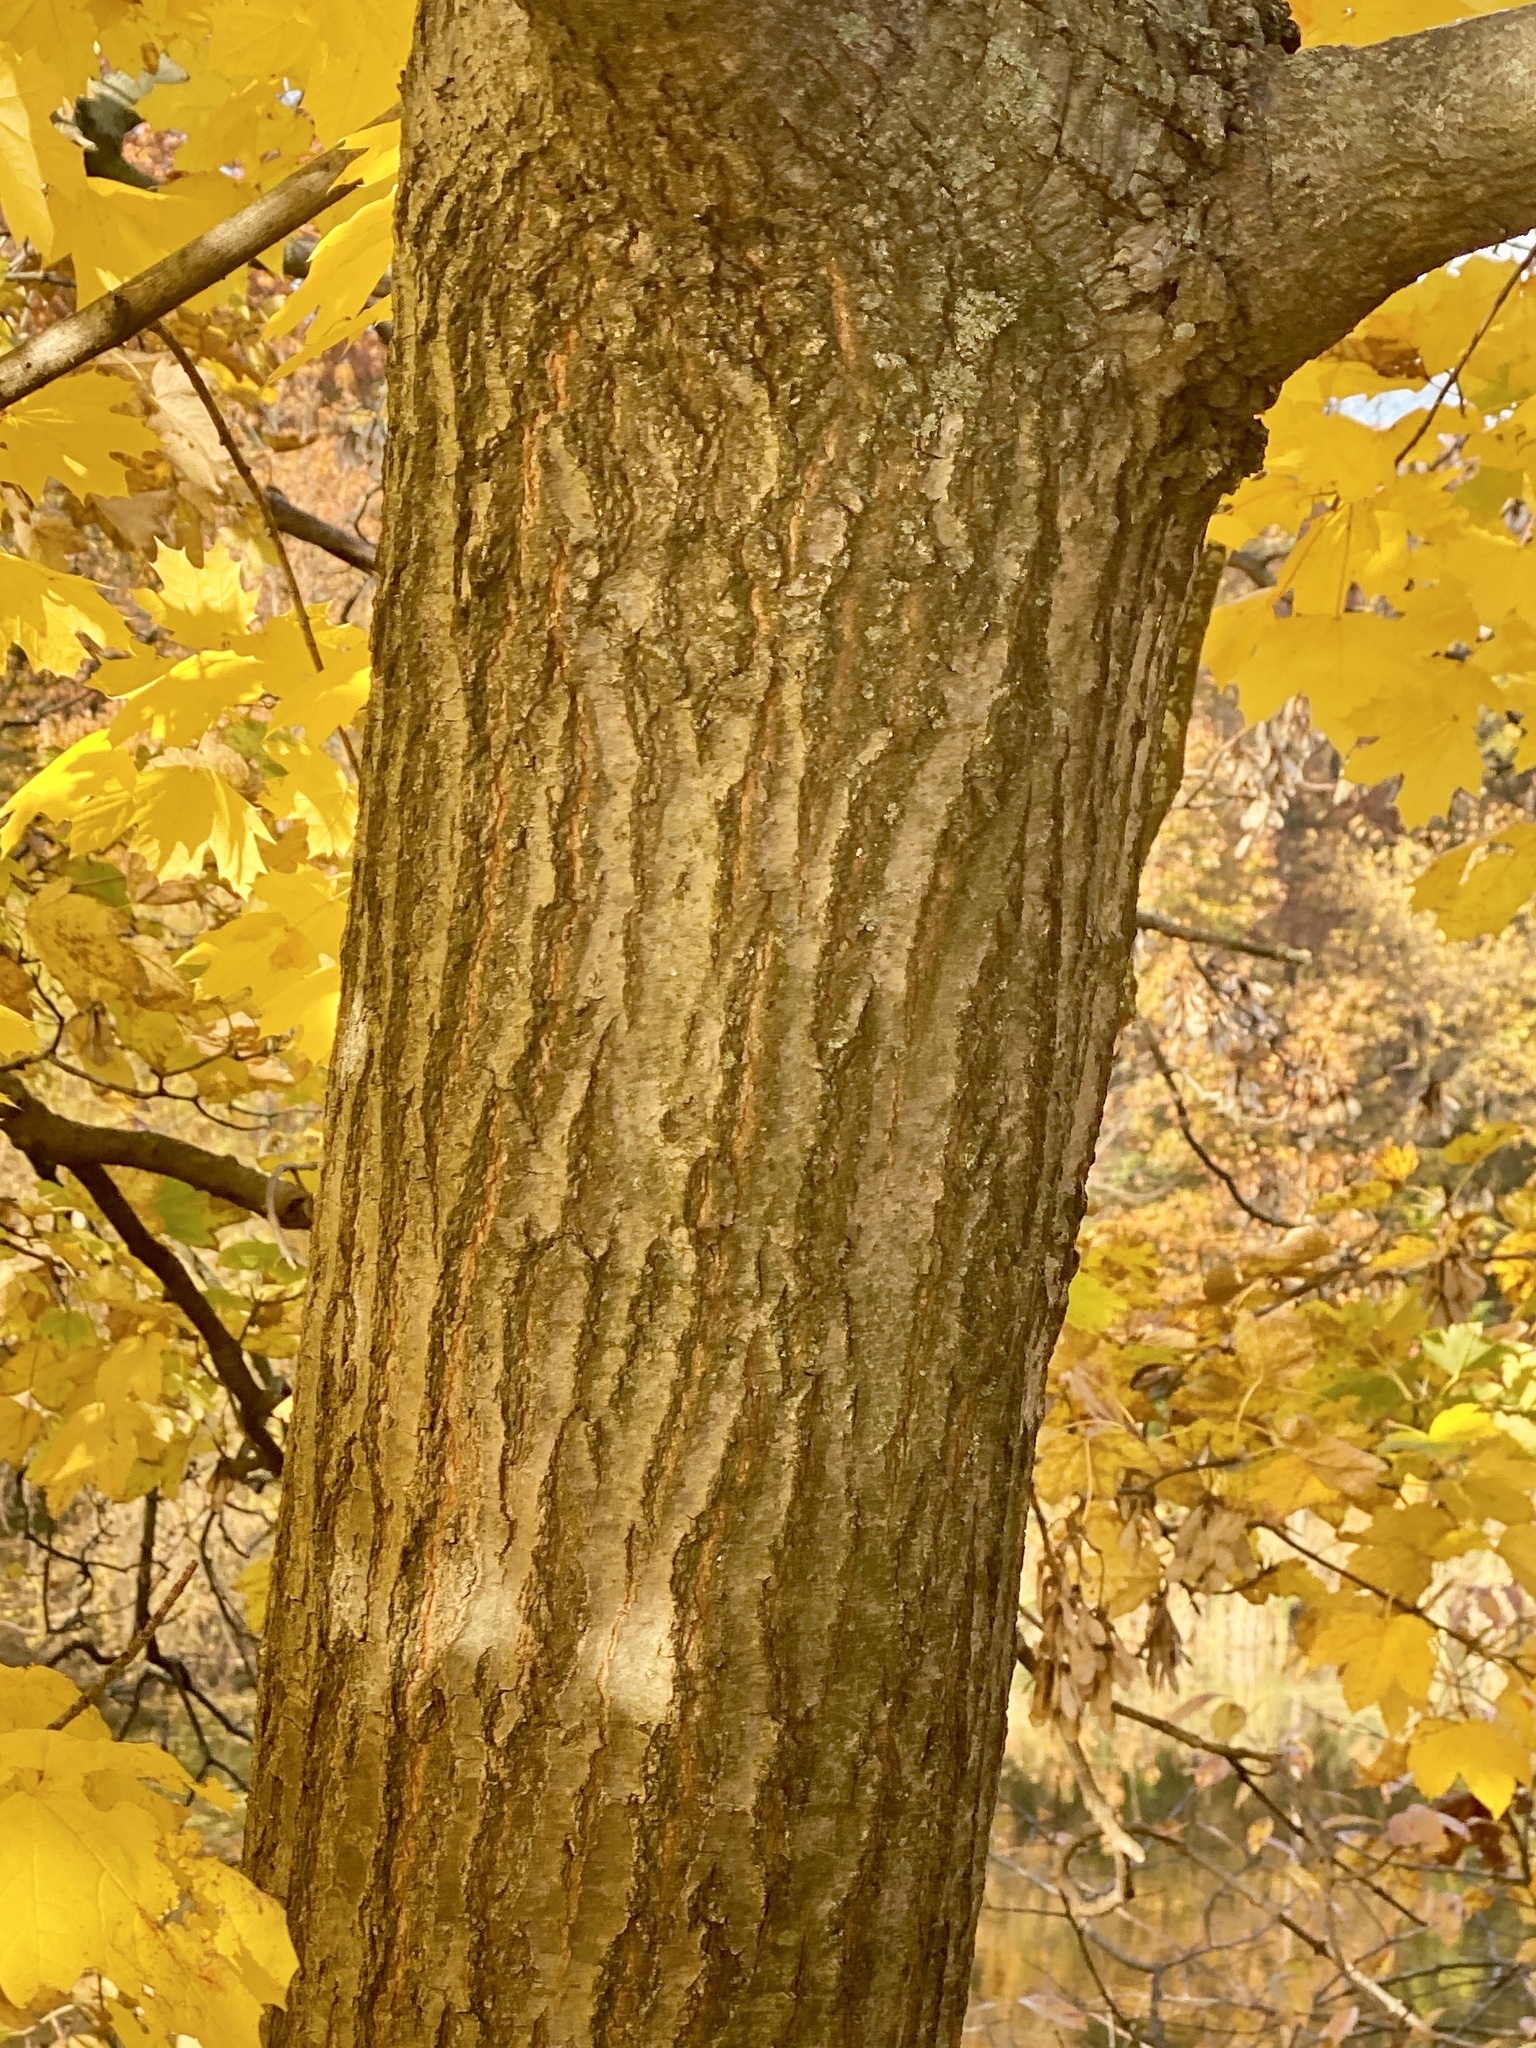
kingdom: Plantae
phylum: Tracheophyta
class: Magnoliopsida
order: Fagales
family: Fagaceae
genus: Quercus
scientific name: Quercus rubra
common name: Red oak
